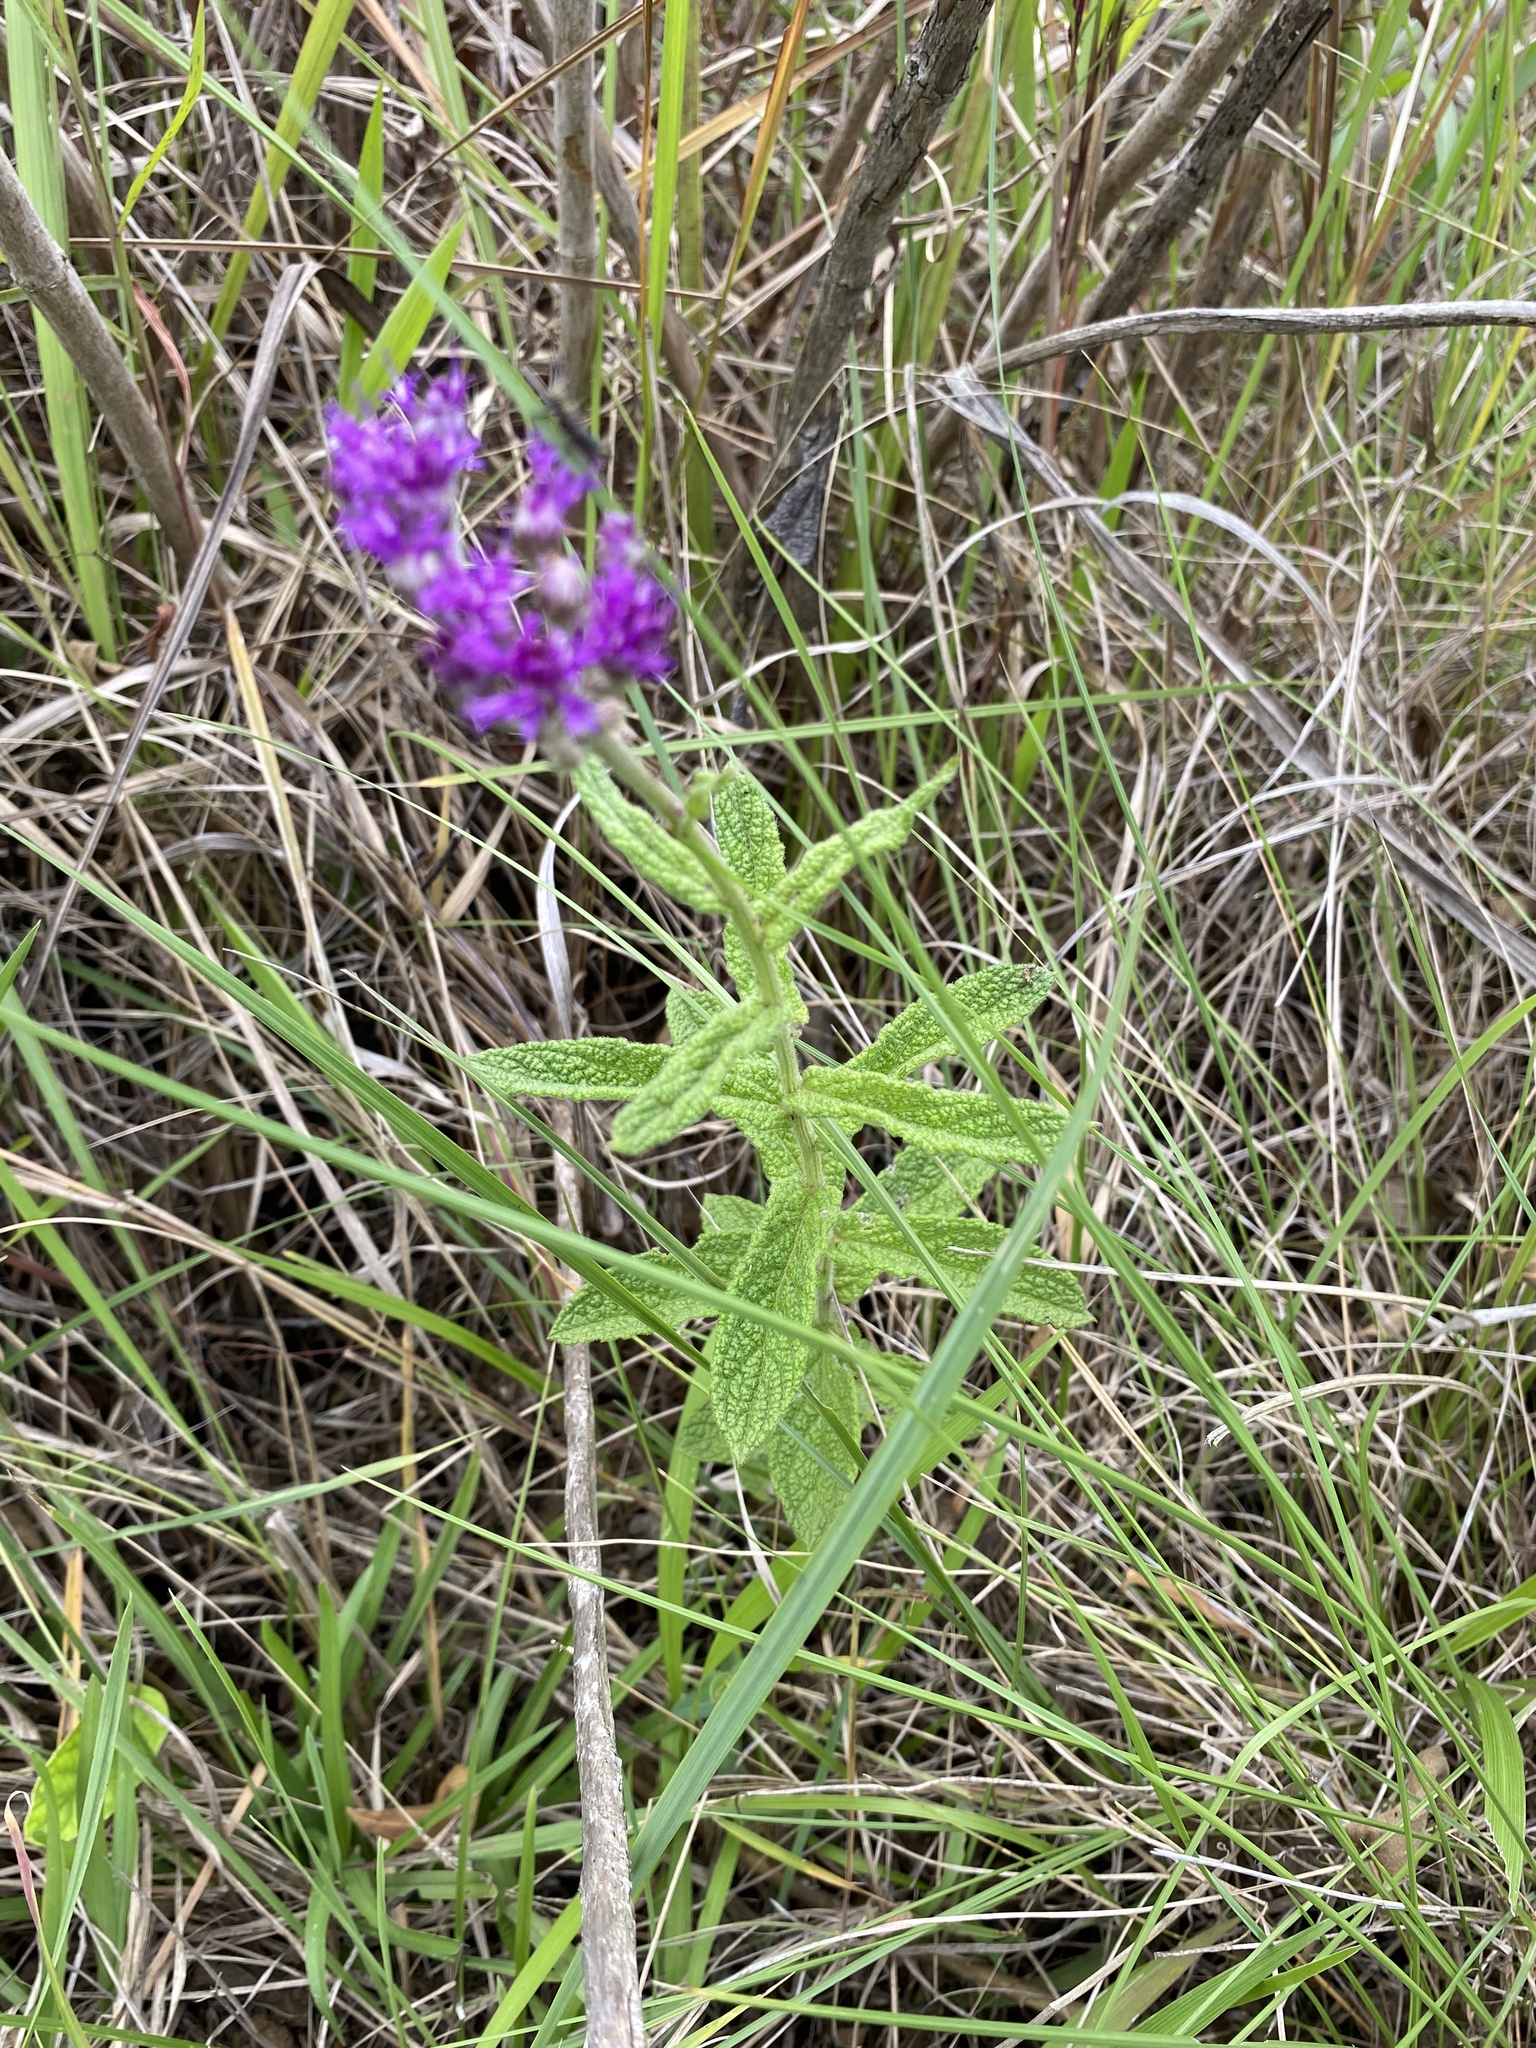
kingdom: Plantae
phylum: Tracheophyta
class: Magnoliopsida
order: Asterales
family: Asteraceae
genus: Hilliardiella
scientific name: Hilliardiella hirsuta
